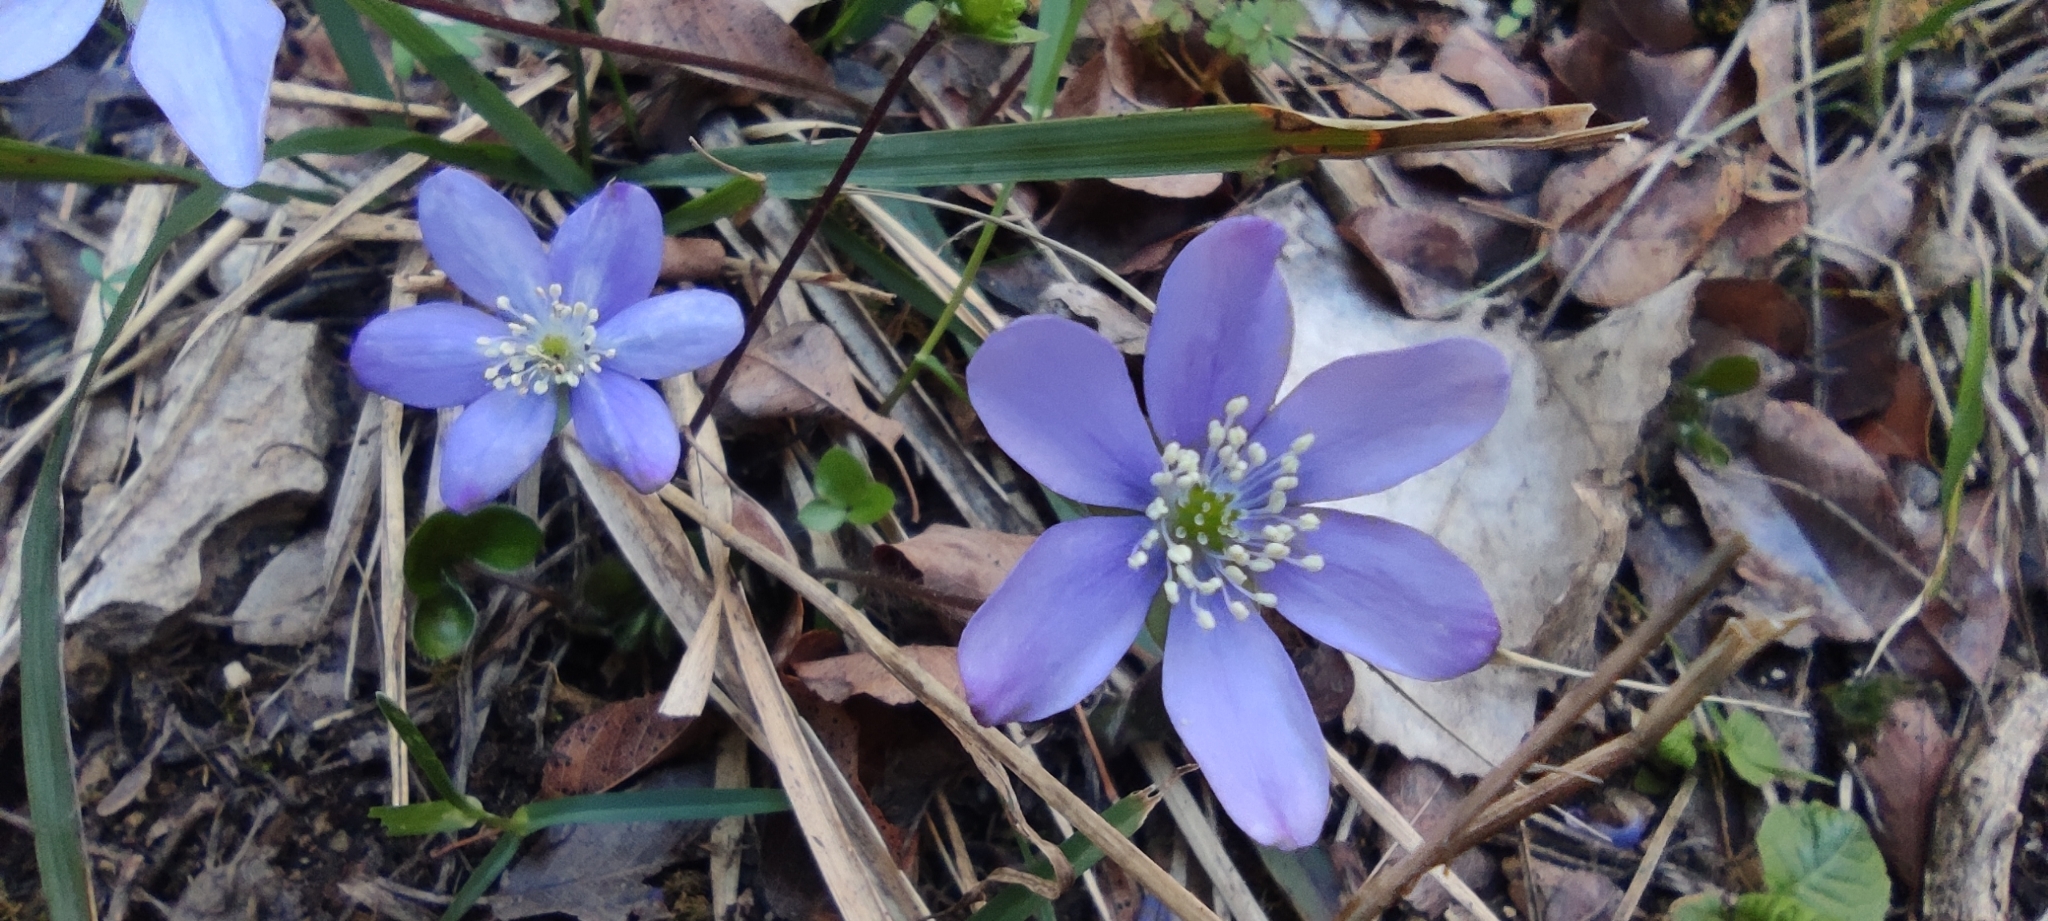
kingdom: Plantae
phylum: Tracheophyta
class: Magnoliopsida
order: Ranunculales
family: Ranunculaceae
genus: Hepatica
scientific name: Hepatica nobilis
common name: Liverleaf
